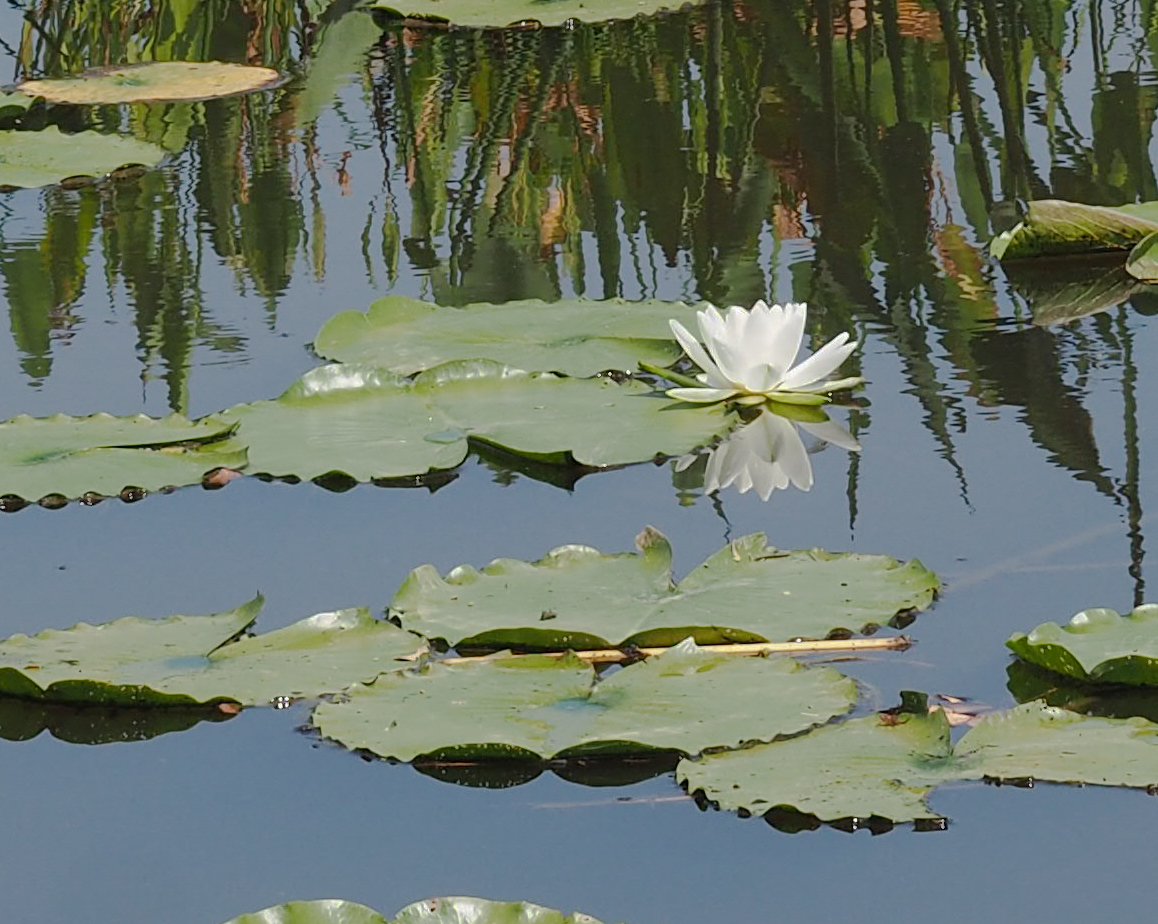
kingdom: Plantae
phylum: Tracheophyta
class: Magnoliopsida
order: Nymphaeales
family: Nymphaeaceae
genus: Nymphaea
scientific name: Nymphaea odorata
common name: Fragrant water-lily
